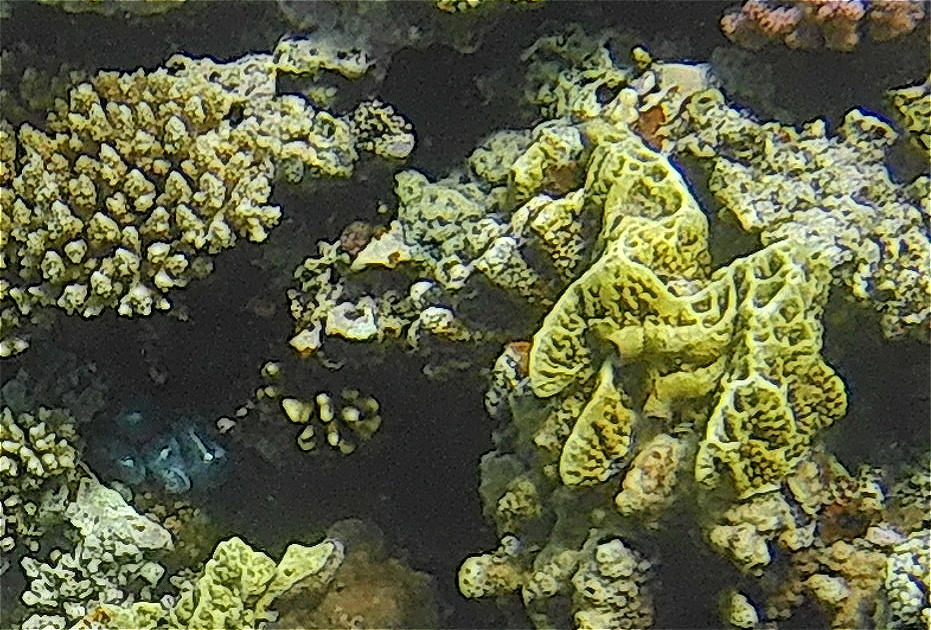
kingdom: Animalia
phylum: Cnidaria
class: Hydrozoa
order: Anthoathecata
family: Milleporidae
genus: Millepora
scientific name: Millepora platyphylla
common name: Sheet fire coral
